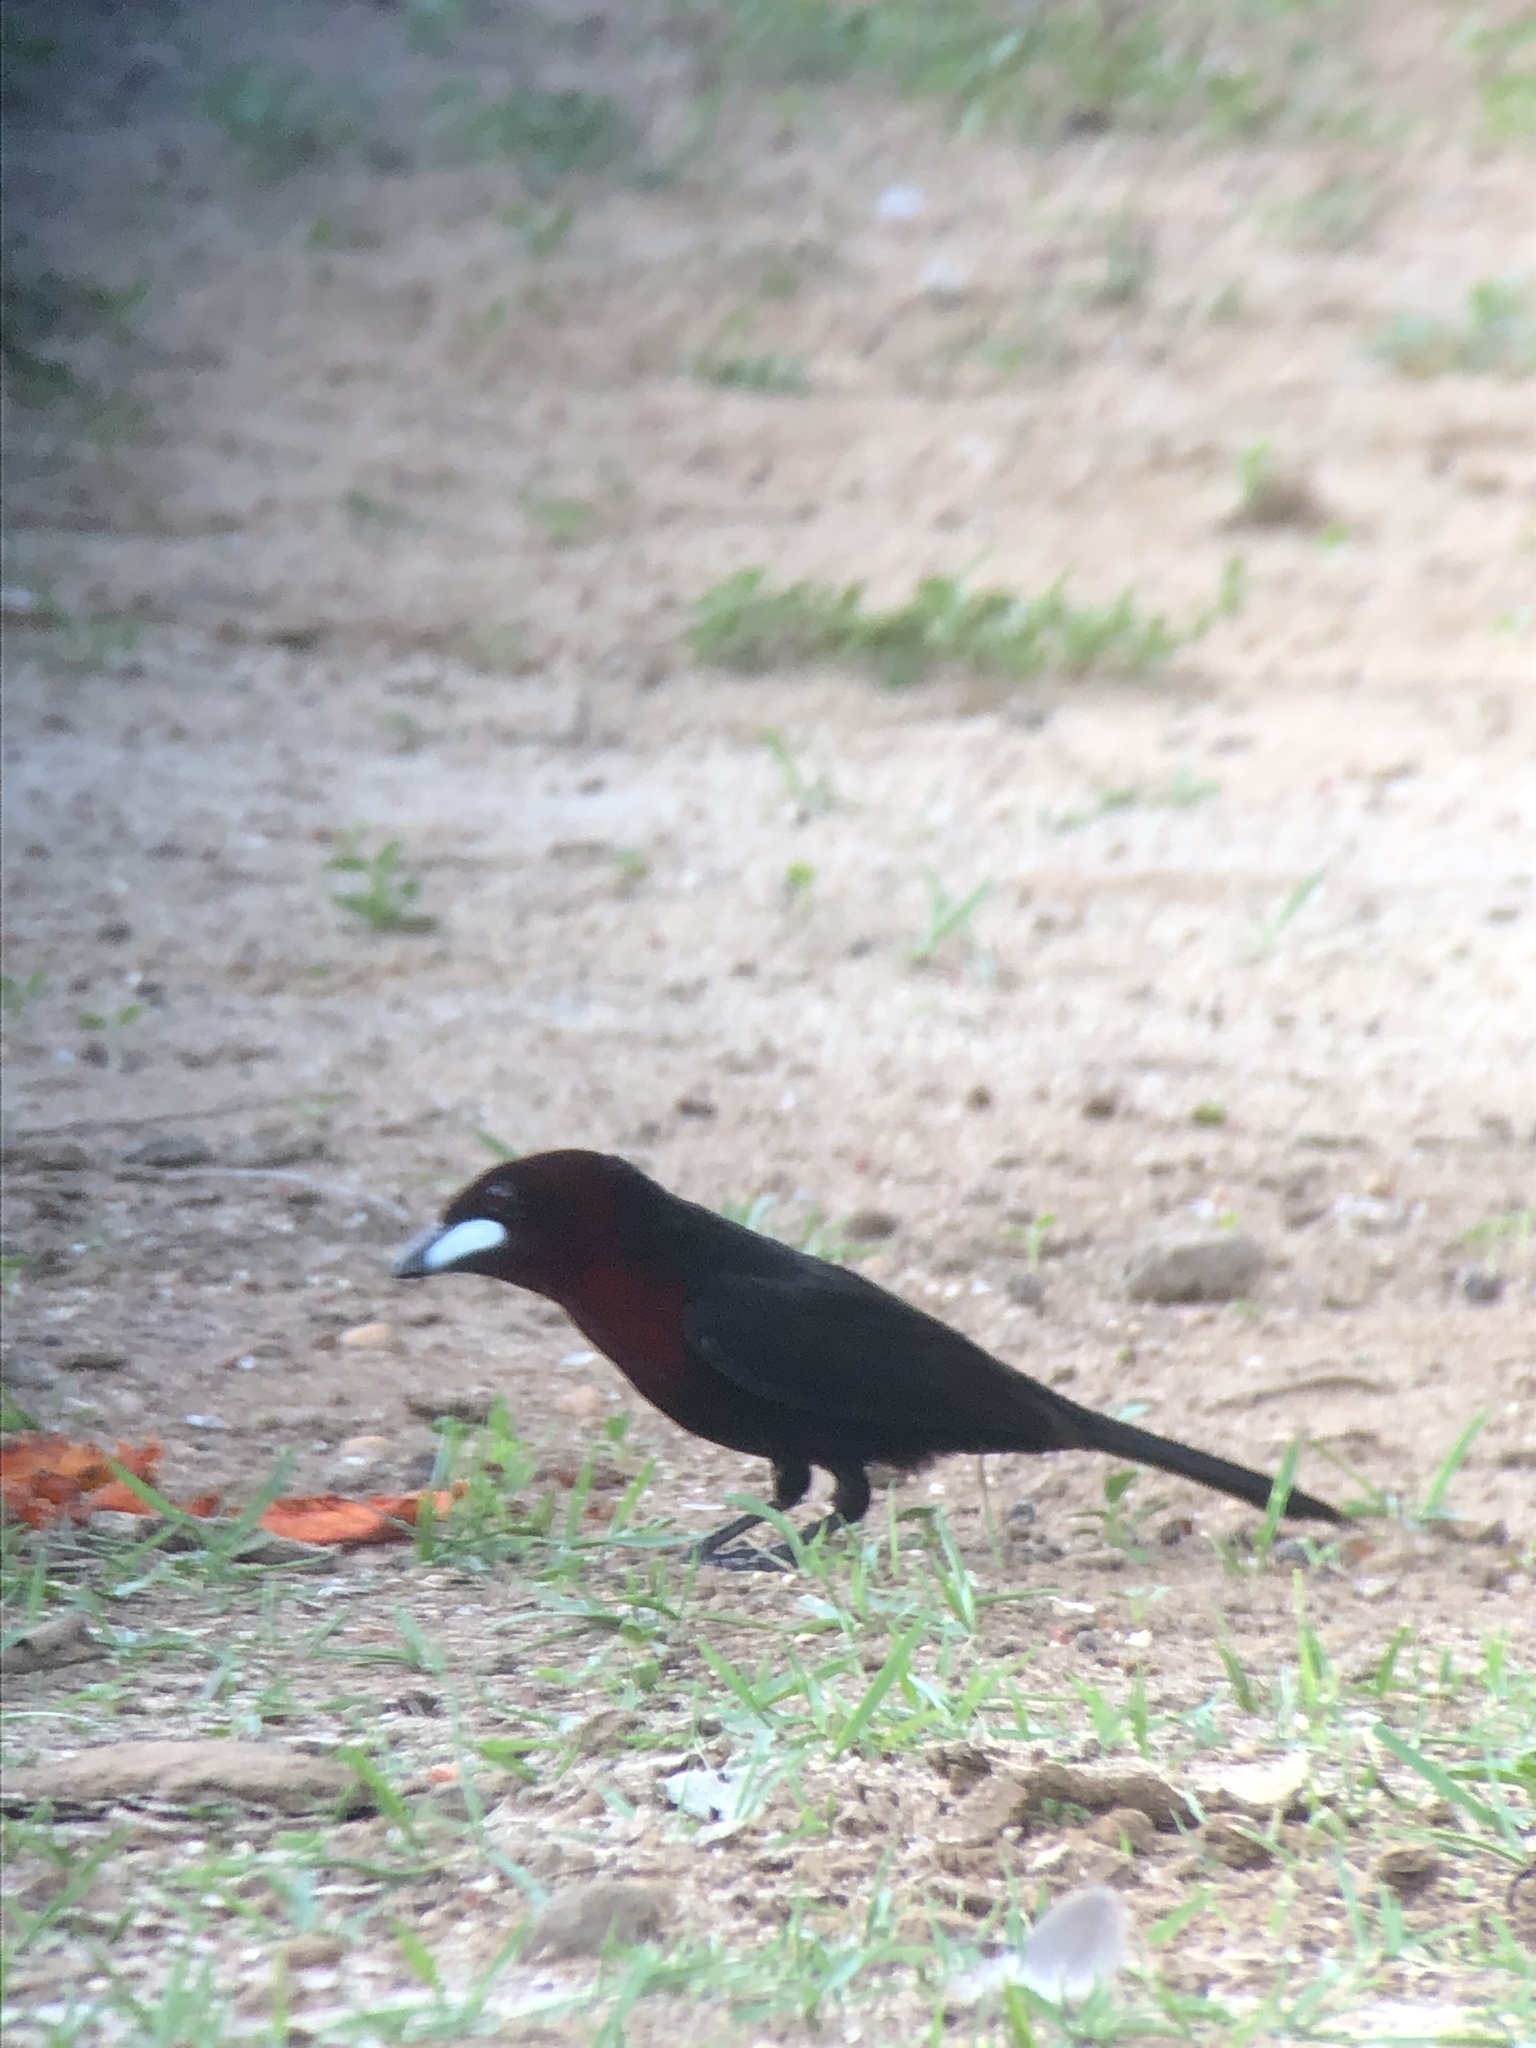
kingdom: Animalia
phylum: Chordata
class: Aves
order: Passeriformes
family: Thraupidae
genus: Ramphocelus
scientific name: Ramphocelus carbo
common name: Silver-beaked tanager
